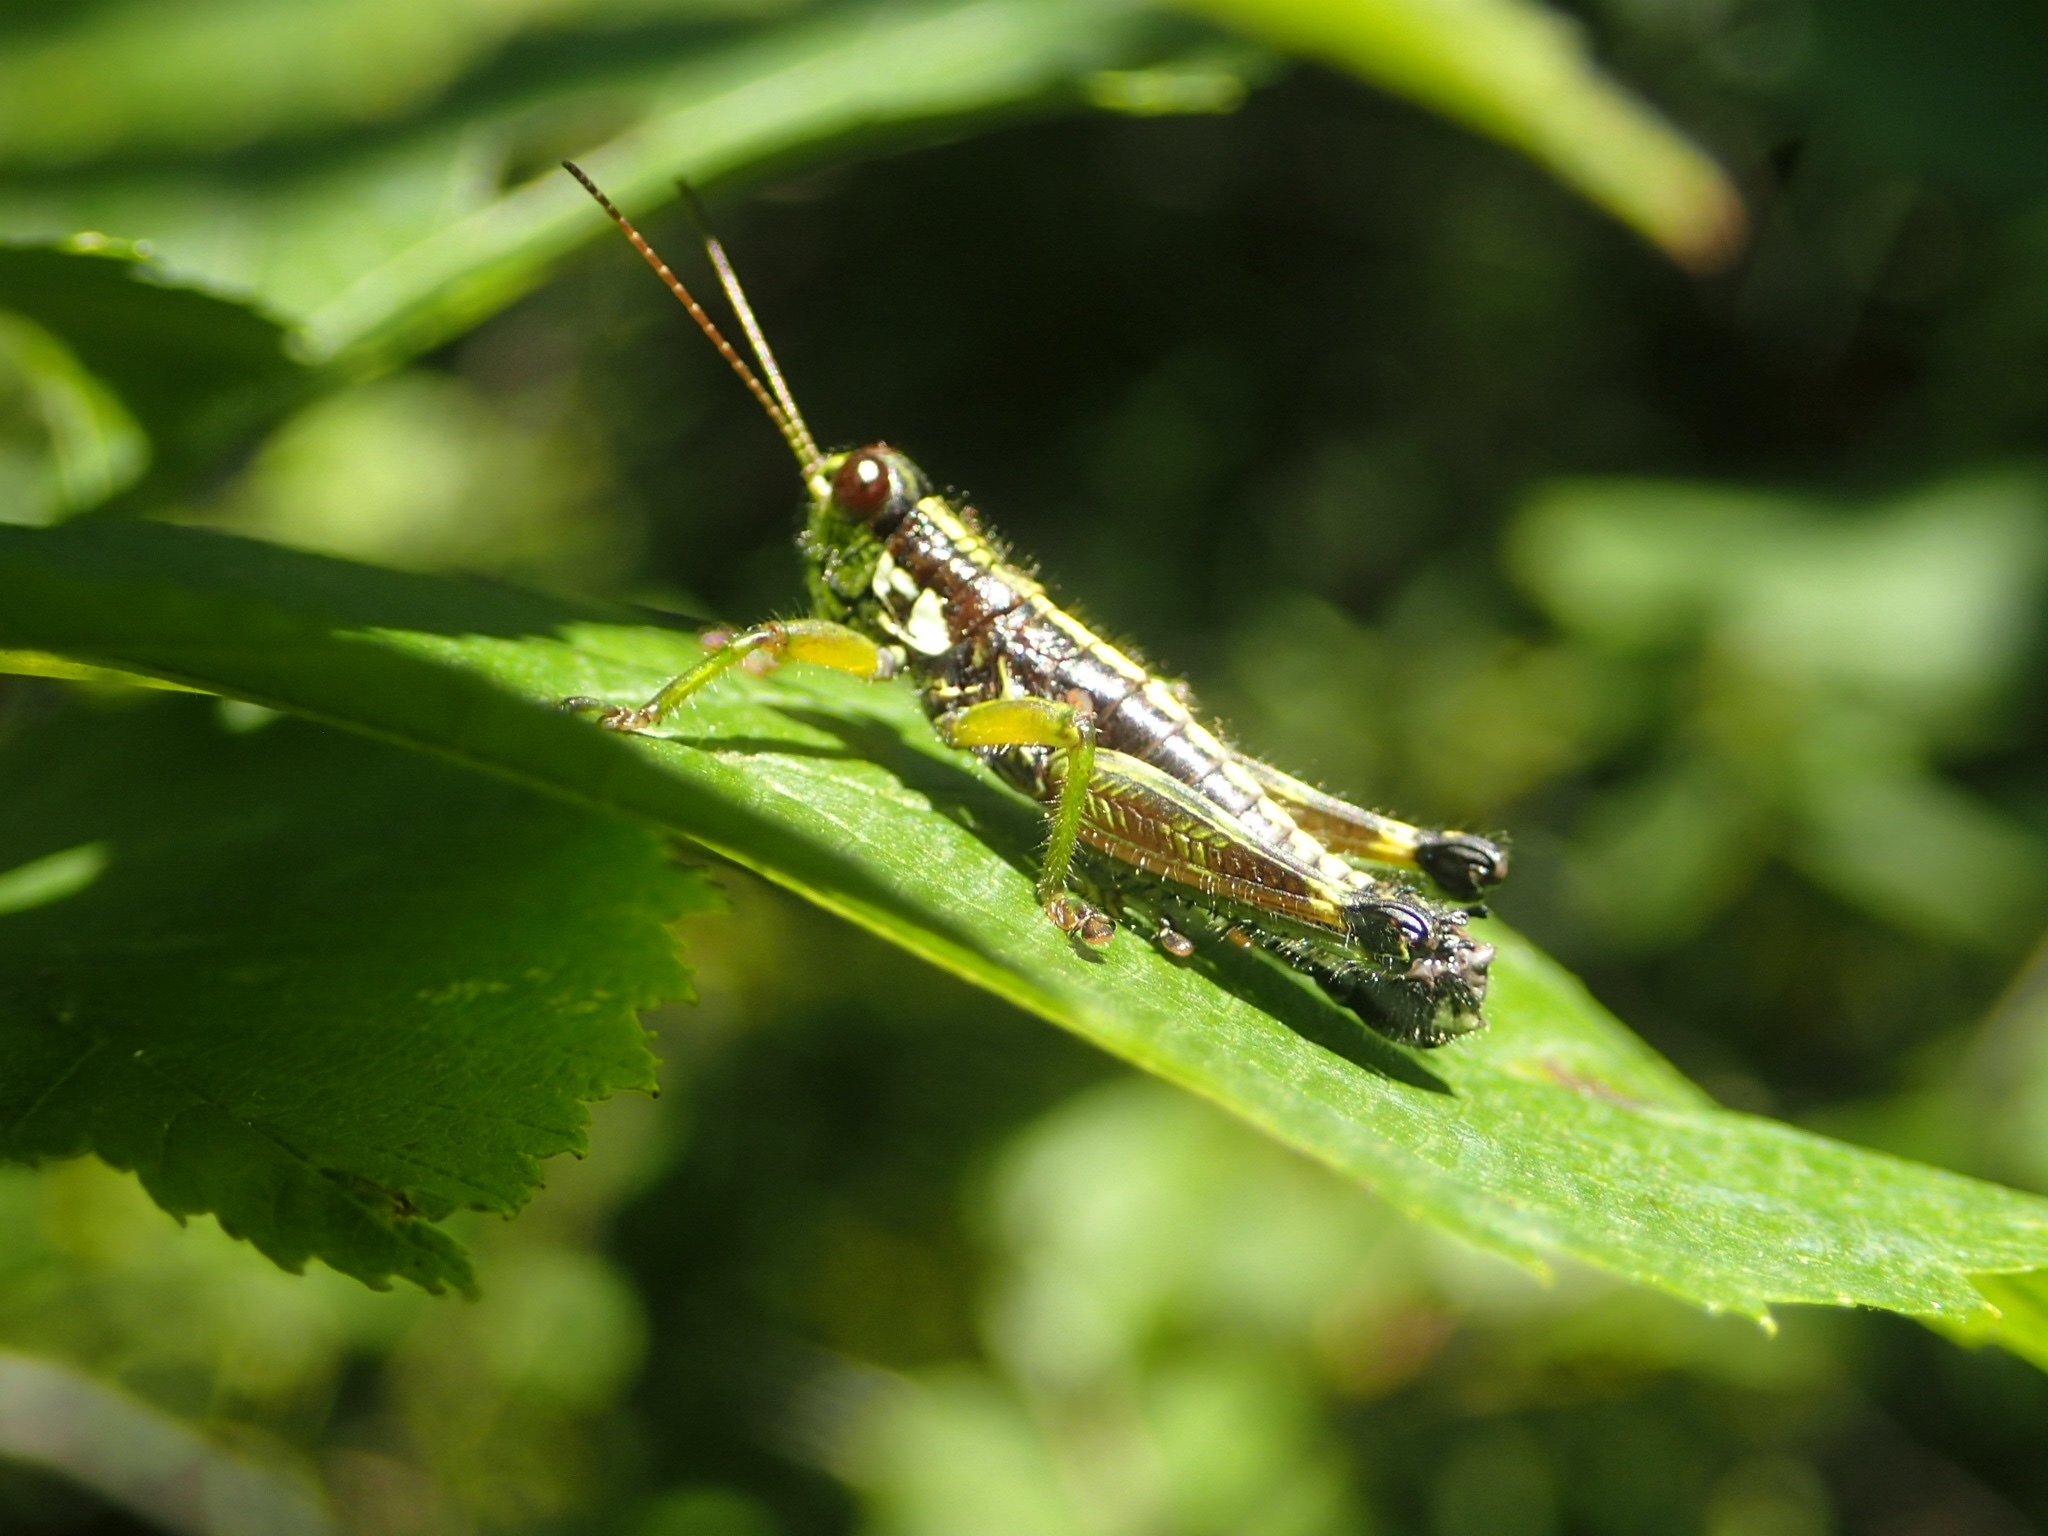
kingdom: Animalia
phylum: Arthropoda
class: Insecta
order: Orthoptera
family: Acrididae
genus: Booneacris
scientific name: Booneacris glacialis
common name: Wingless mountain grasshopper
